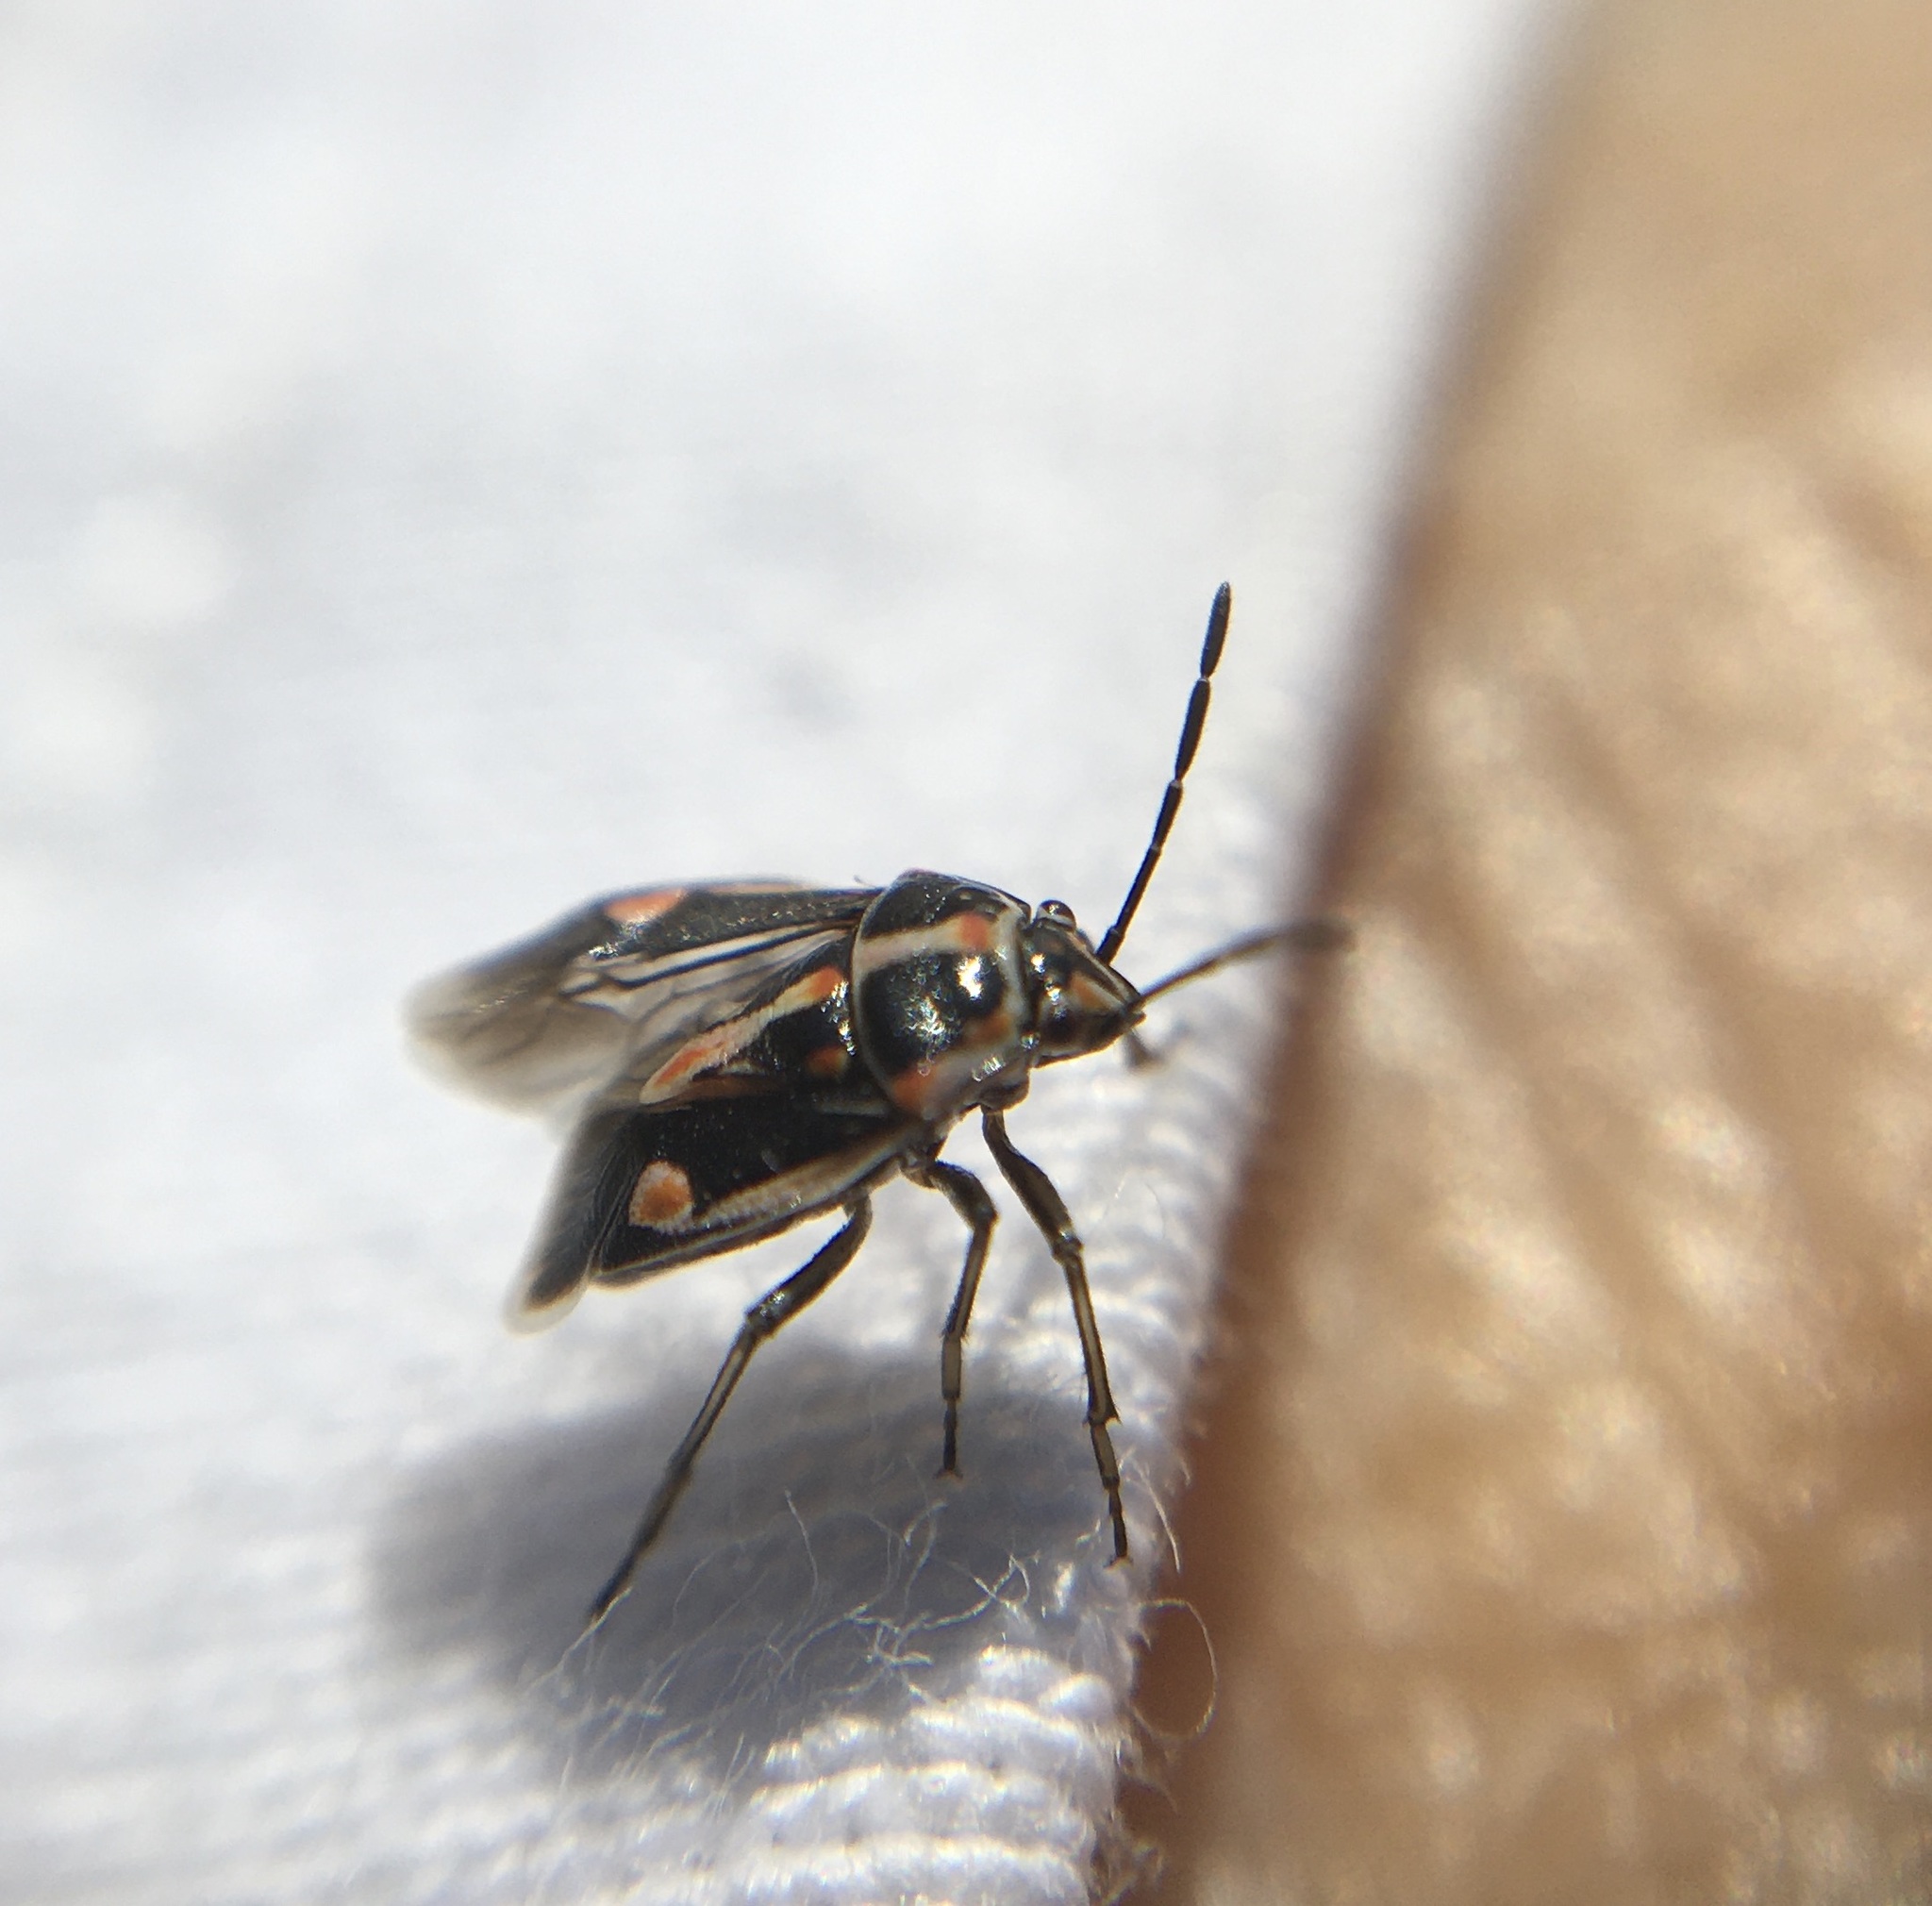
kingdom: Animalia
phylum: Arthropoda
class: Insecta
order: Hemiptera
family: Pentatomidae
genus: Bagrada
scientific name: Bagrada hilaris
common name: Bagrada bug
